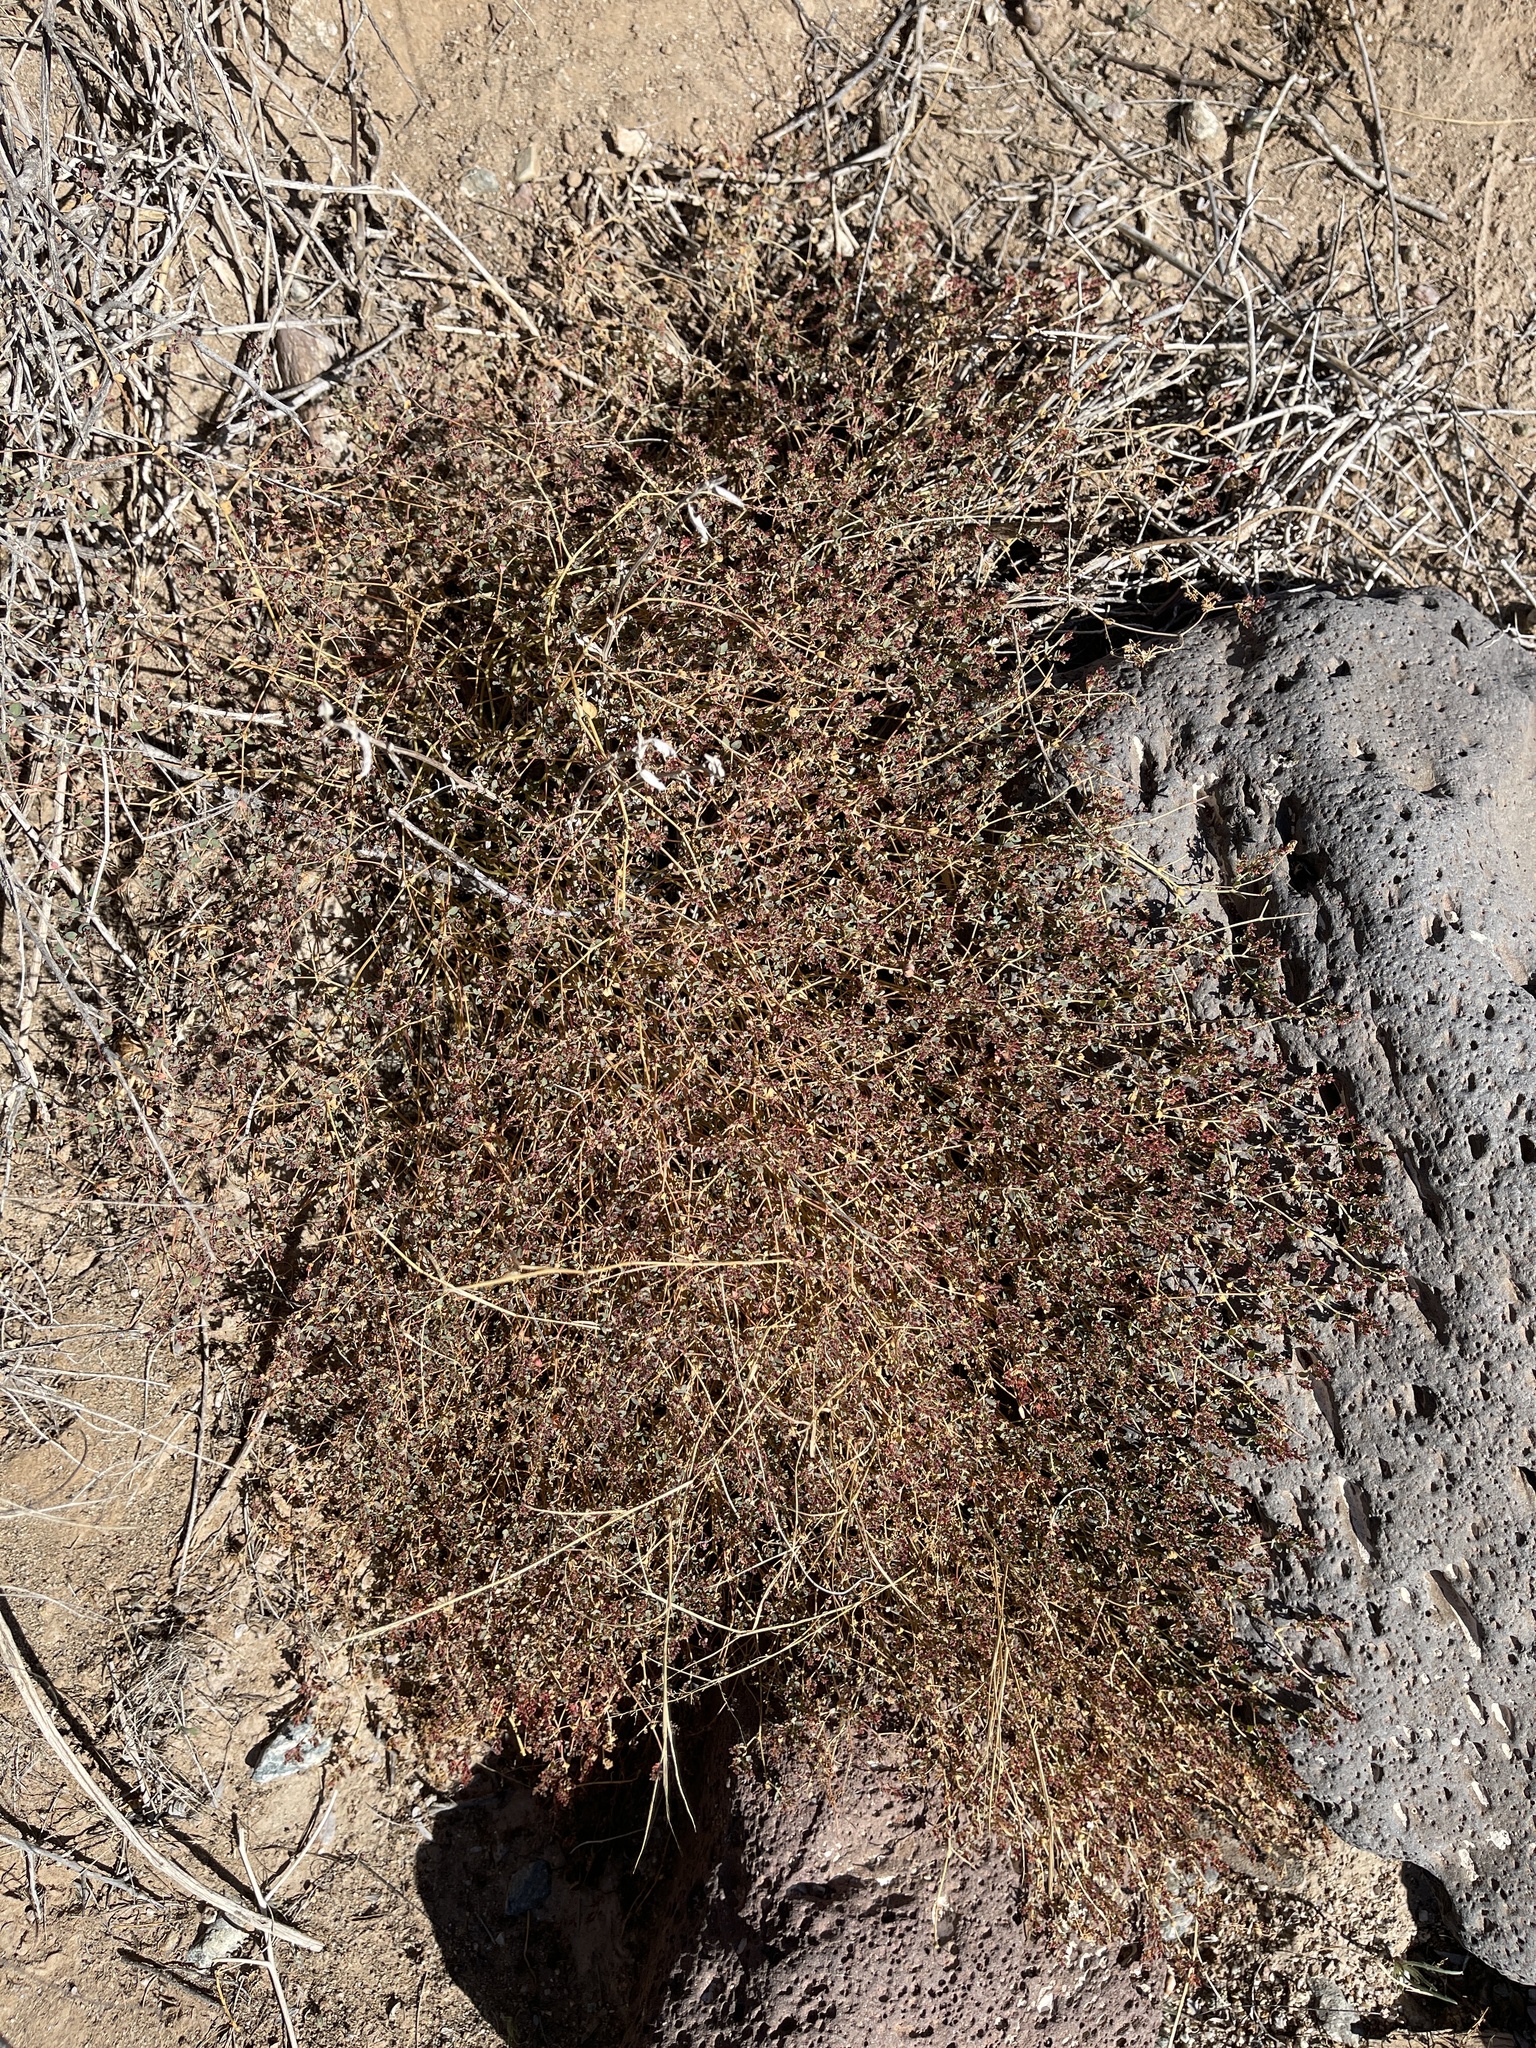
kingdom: Plantae
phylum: Tracheophyta
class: Magnoliopsida
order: Malpighiales
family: Euphorbiaceae
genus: Euphorbia
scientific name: Euphorbia polycarpa
